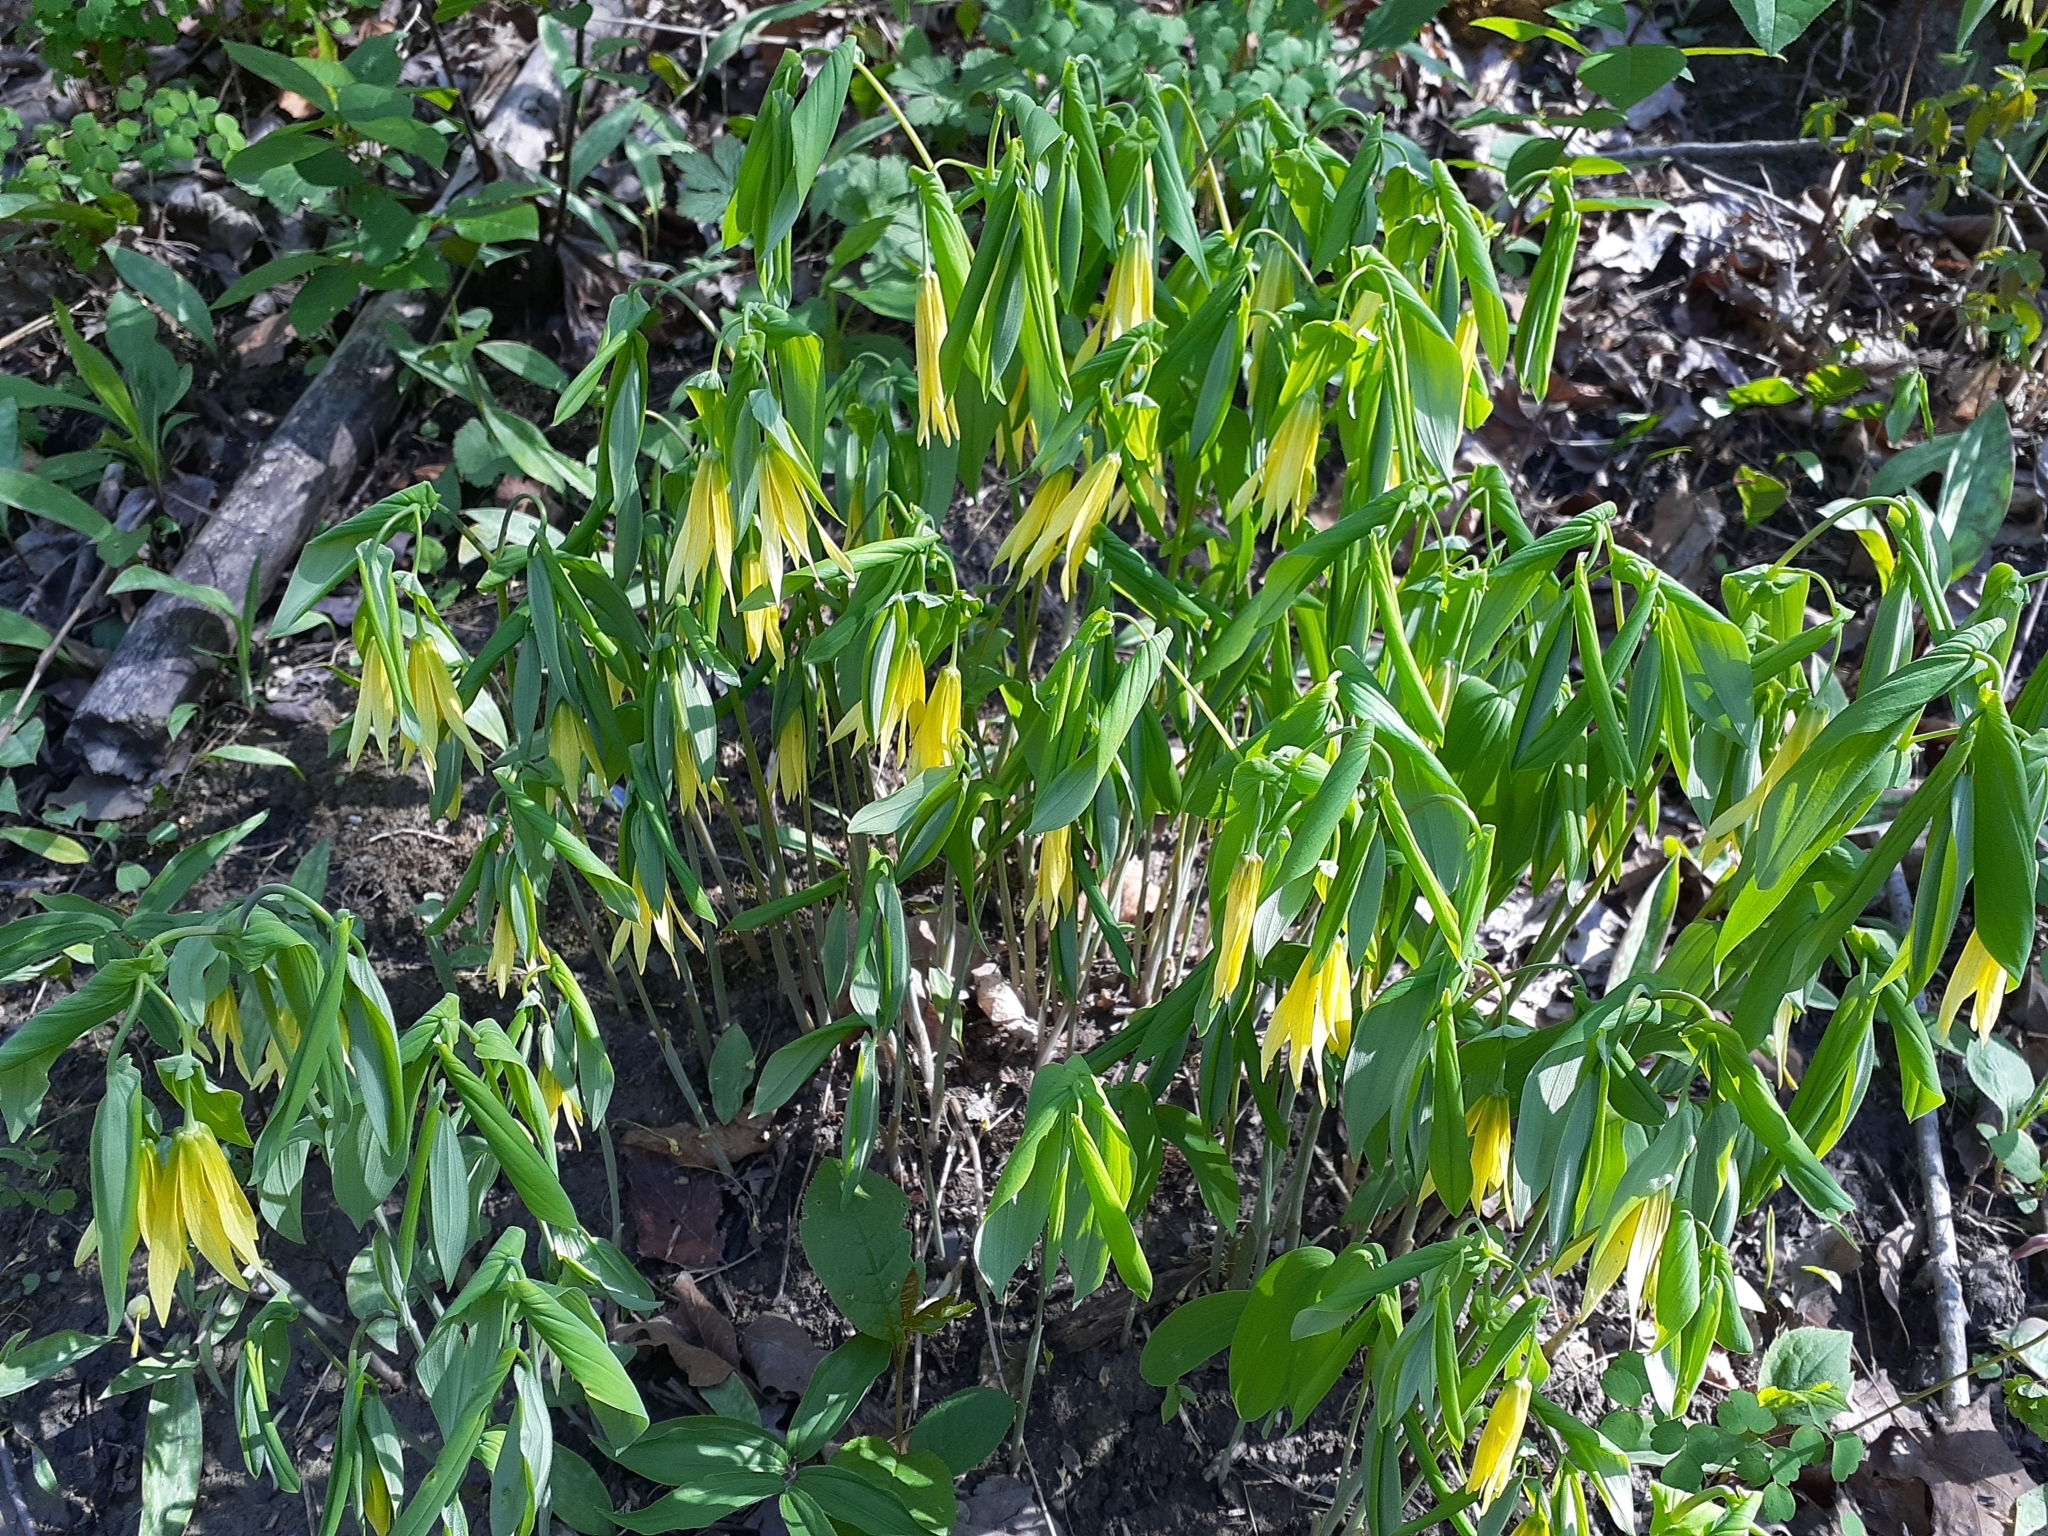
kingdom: Plantae
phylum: Tracheophyta
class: Liliopsida
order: Liliales
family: Colchicaceae
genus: Uvularia
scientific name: Uvularia grandiflora
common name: Bellwort
